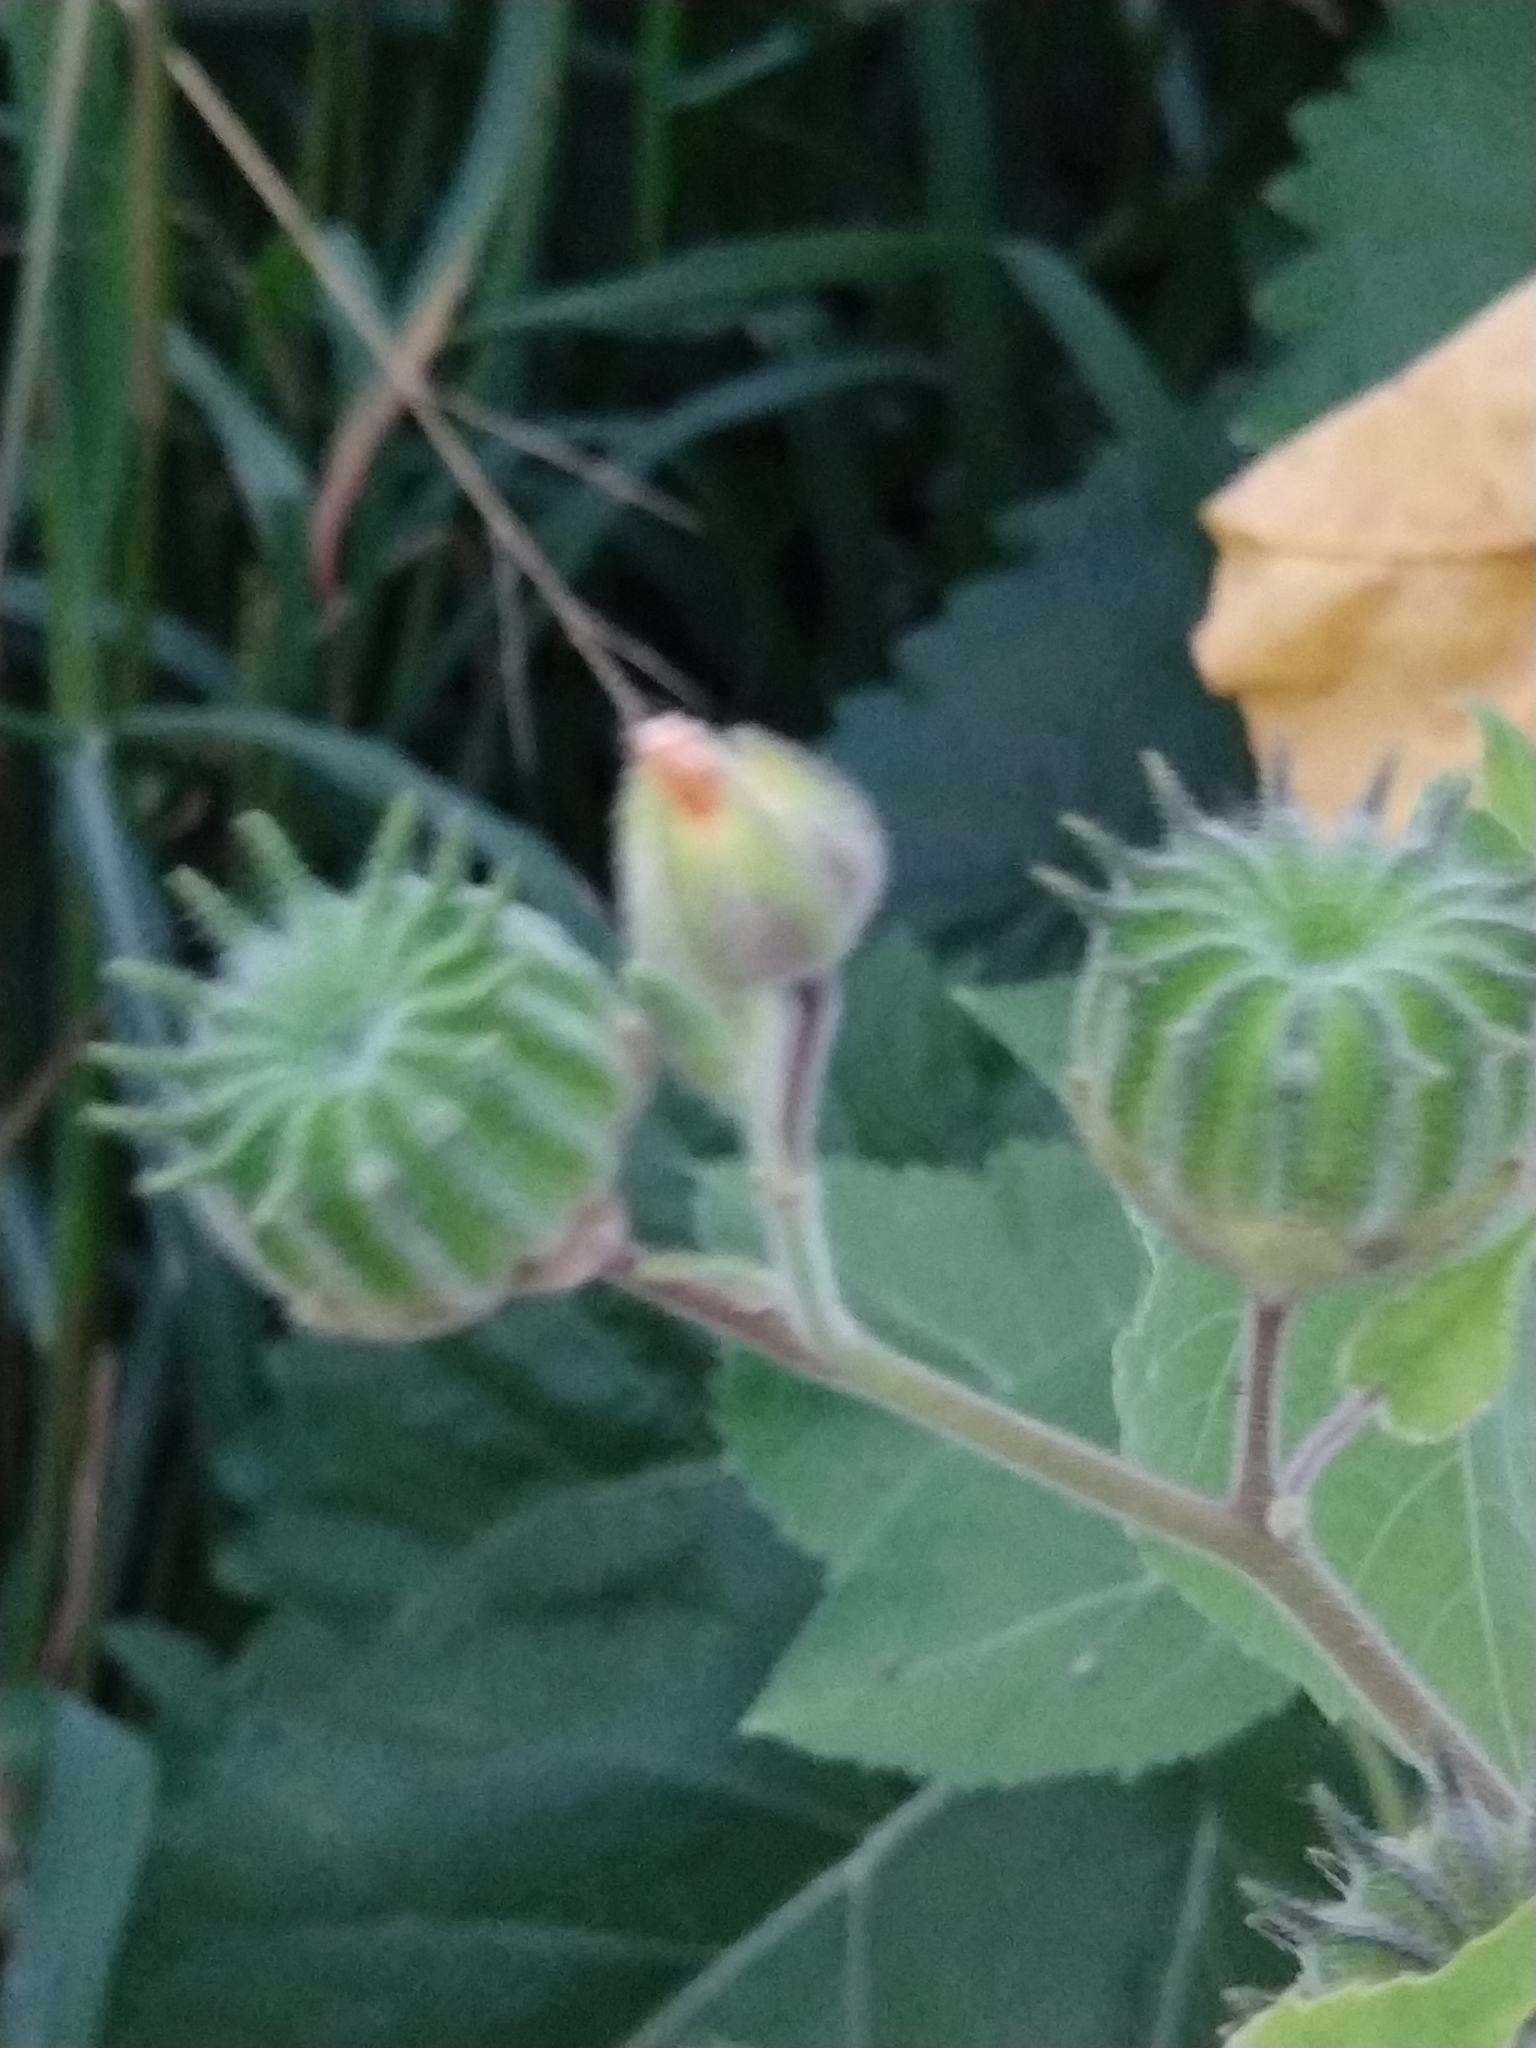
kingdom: Plantae
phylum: Tracheophyta
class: Magnoliopsida
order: Malvales
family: Malvaceae
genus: Abutilon
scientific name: Abutilon theophrasti
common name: Velvetleaf
